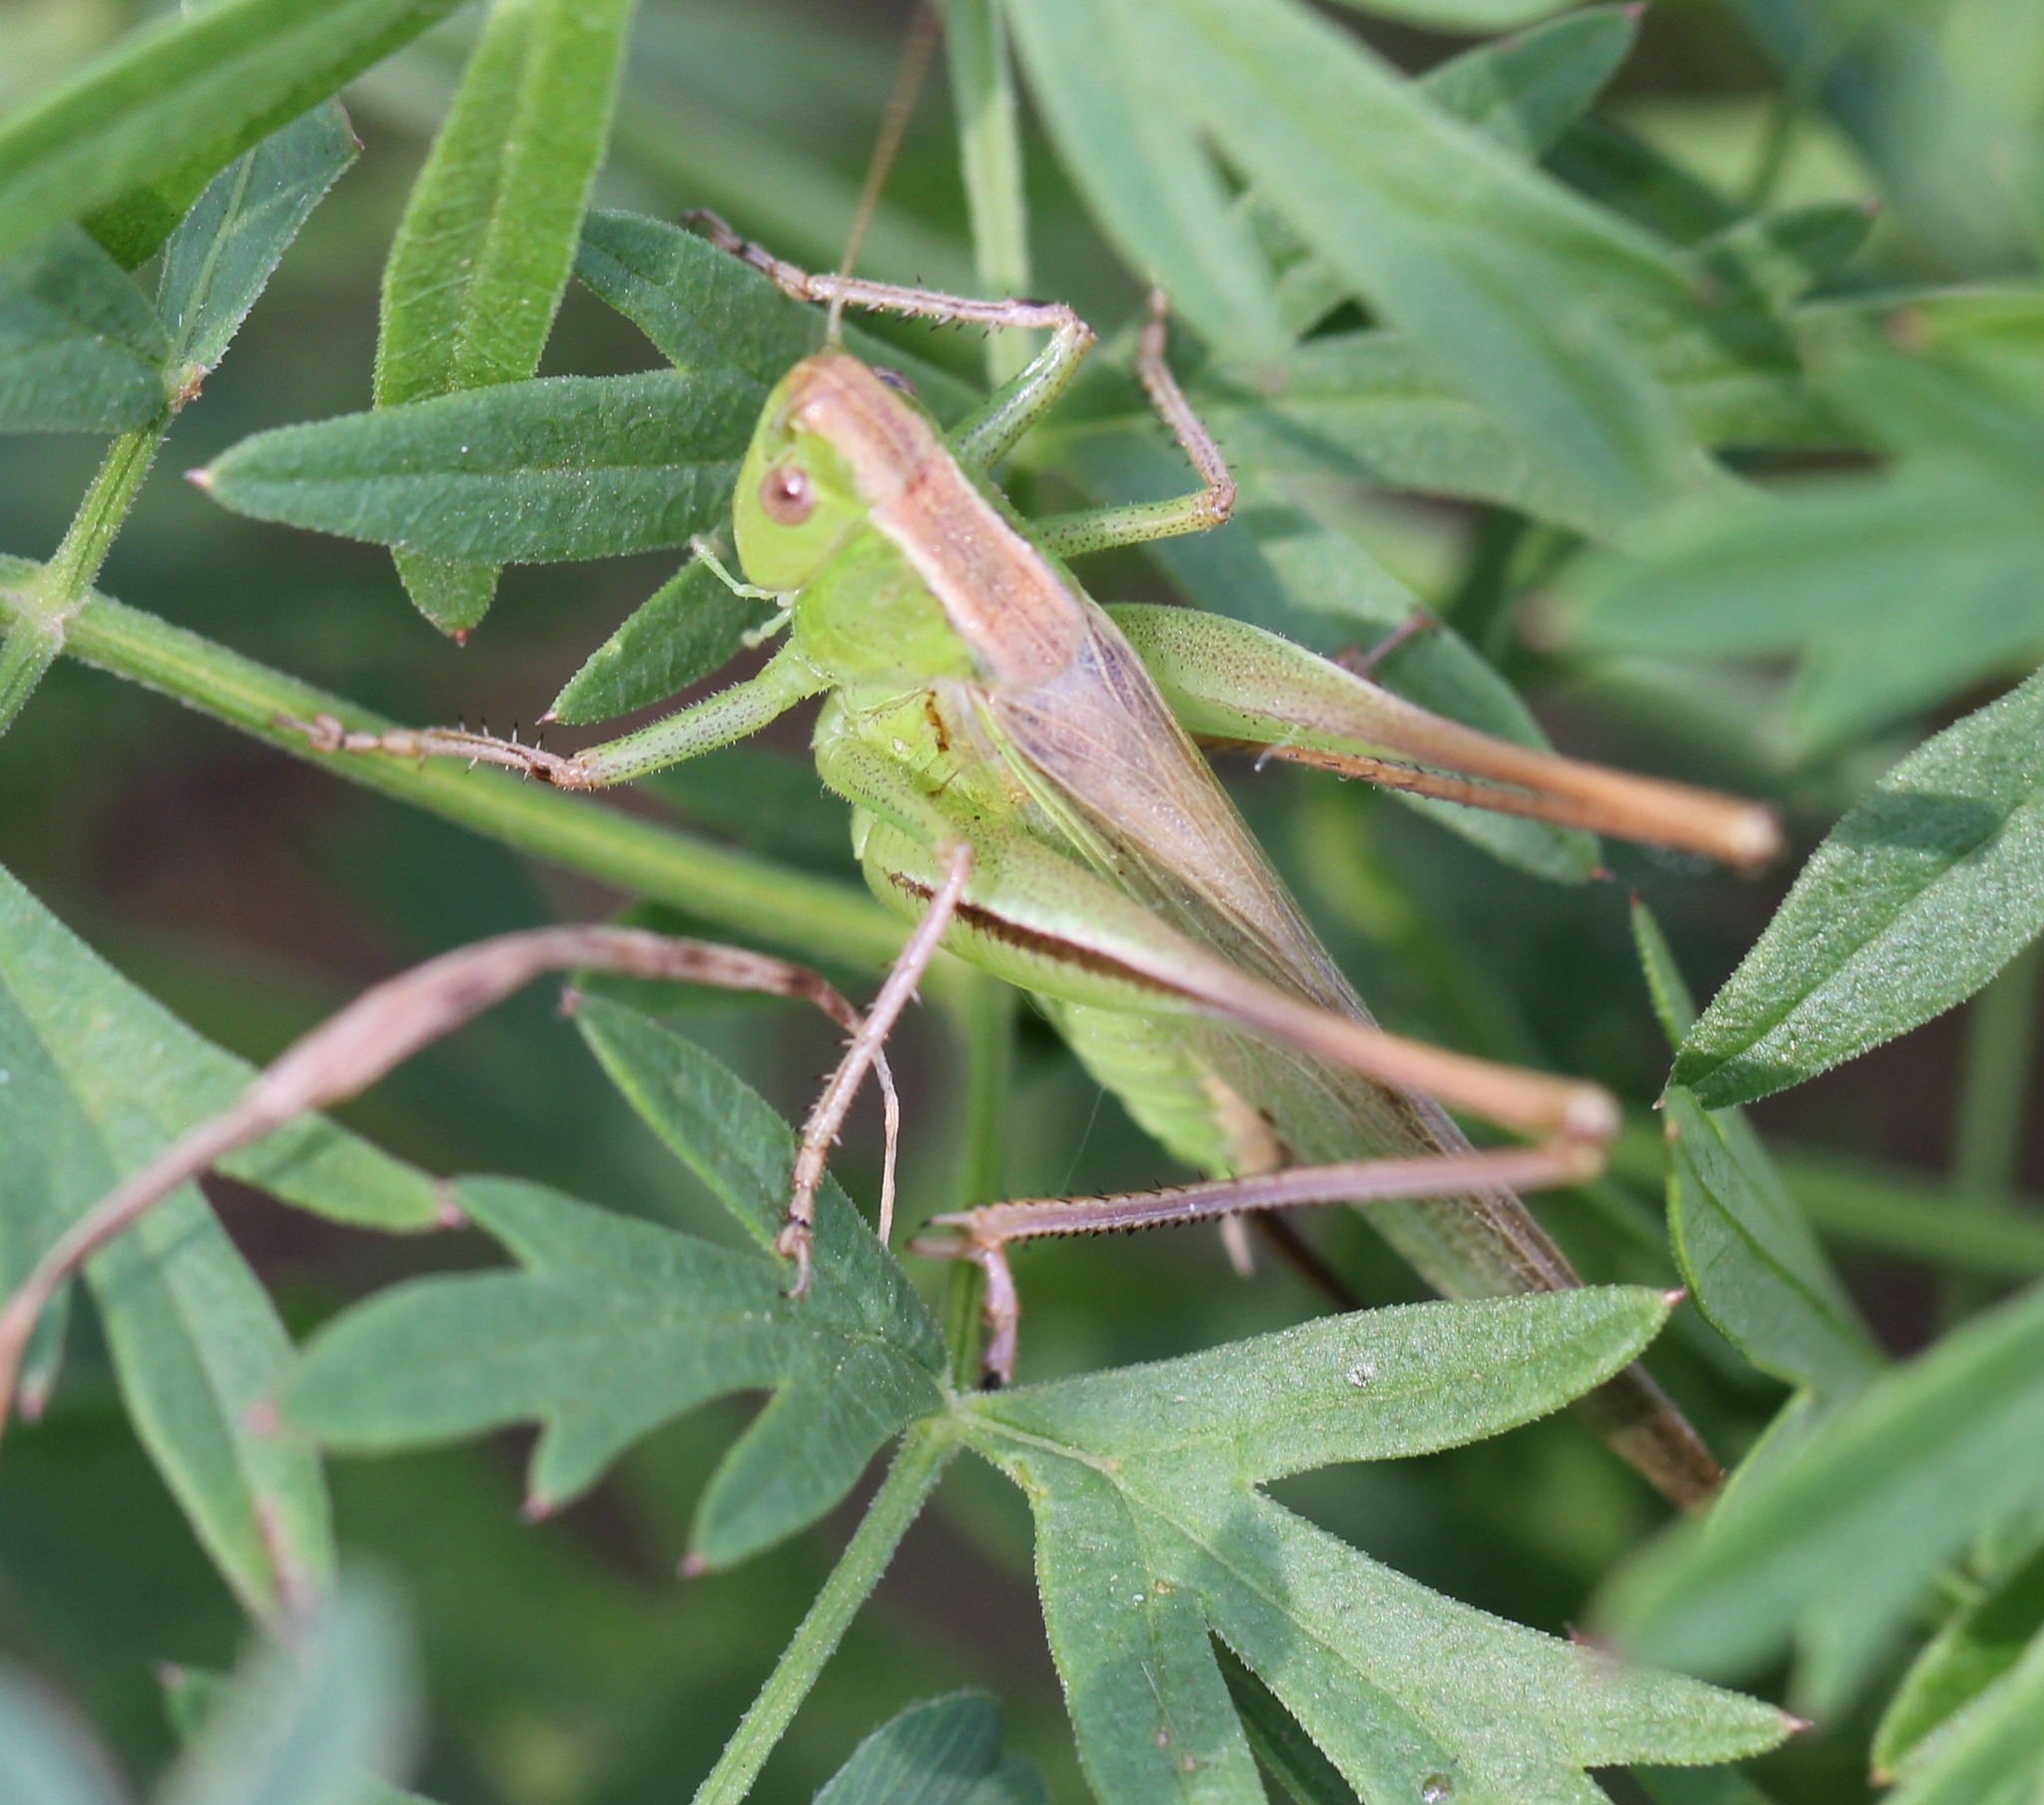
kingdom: Animalia
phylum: Arthropoda
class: Insecta
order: Orthoptera
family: Tettigoniidae
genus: Bicolorana
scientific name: Bicolorana bicolor
